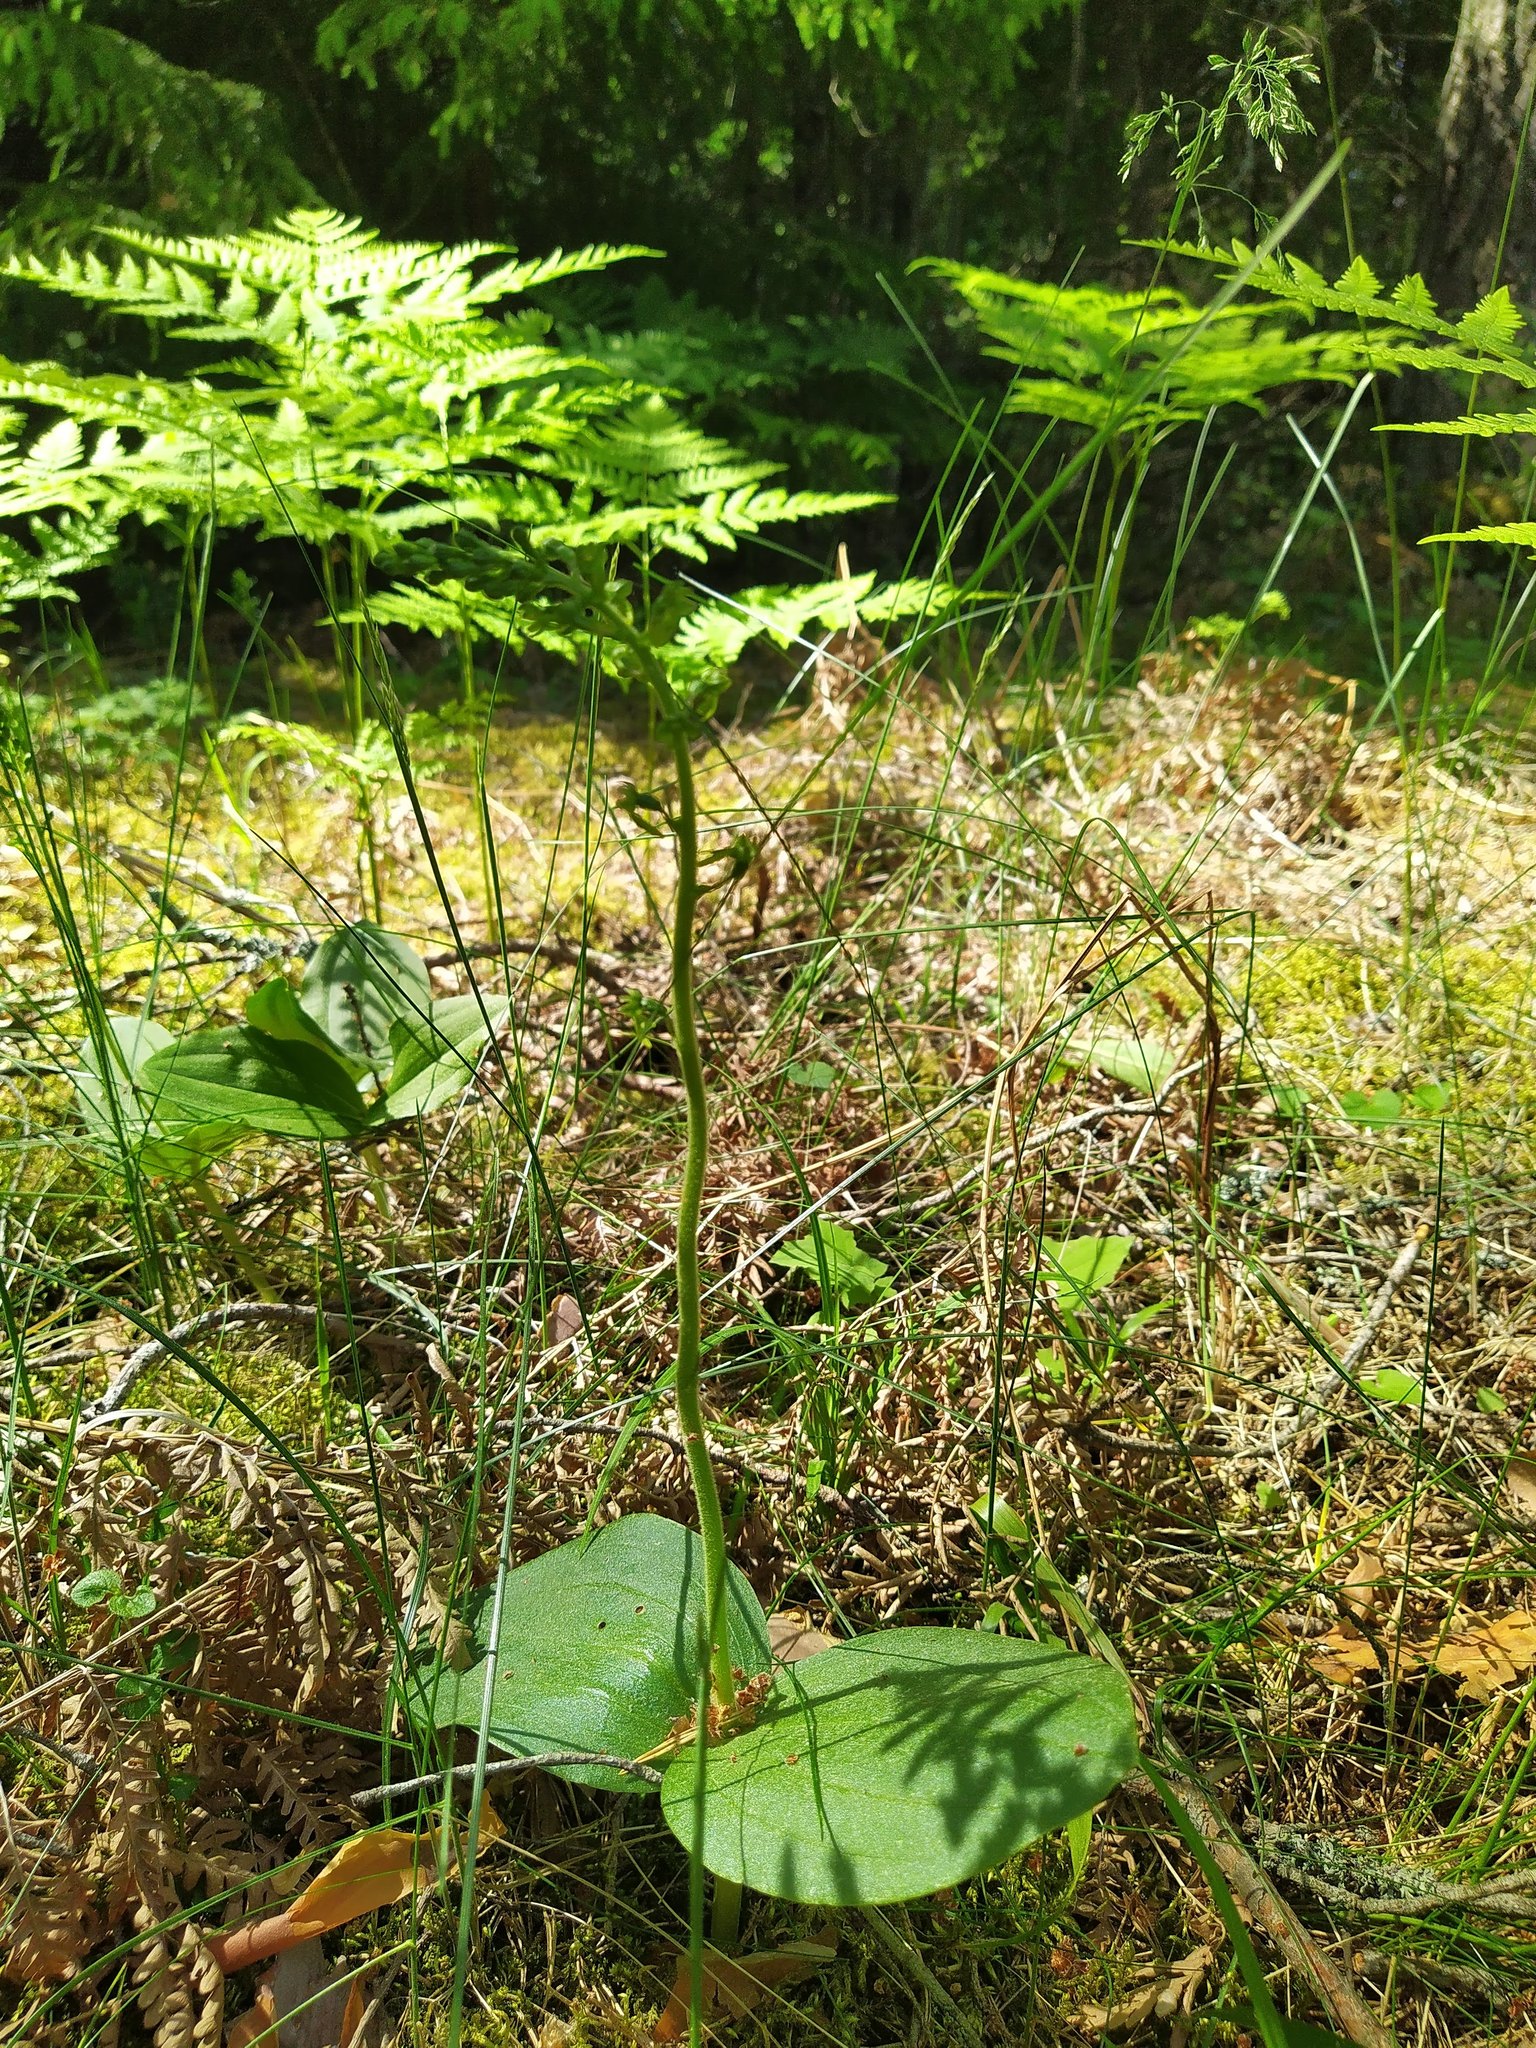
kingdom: Plantae
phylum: Tracheophyta
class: Liliopsida
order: Asparagales
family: Orchidaceae
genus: Neottia
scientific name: Neottia ovata
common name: Common twayblade
